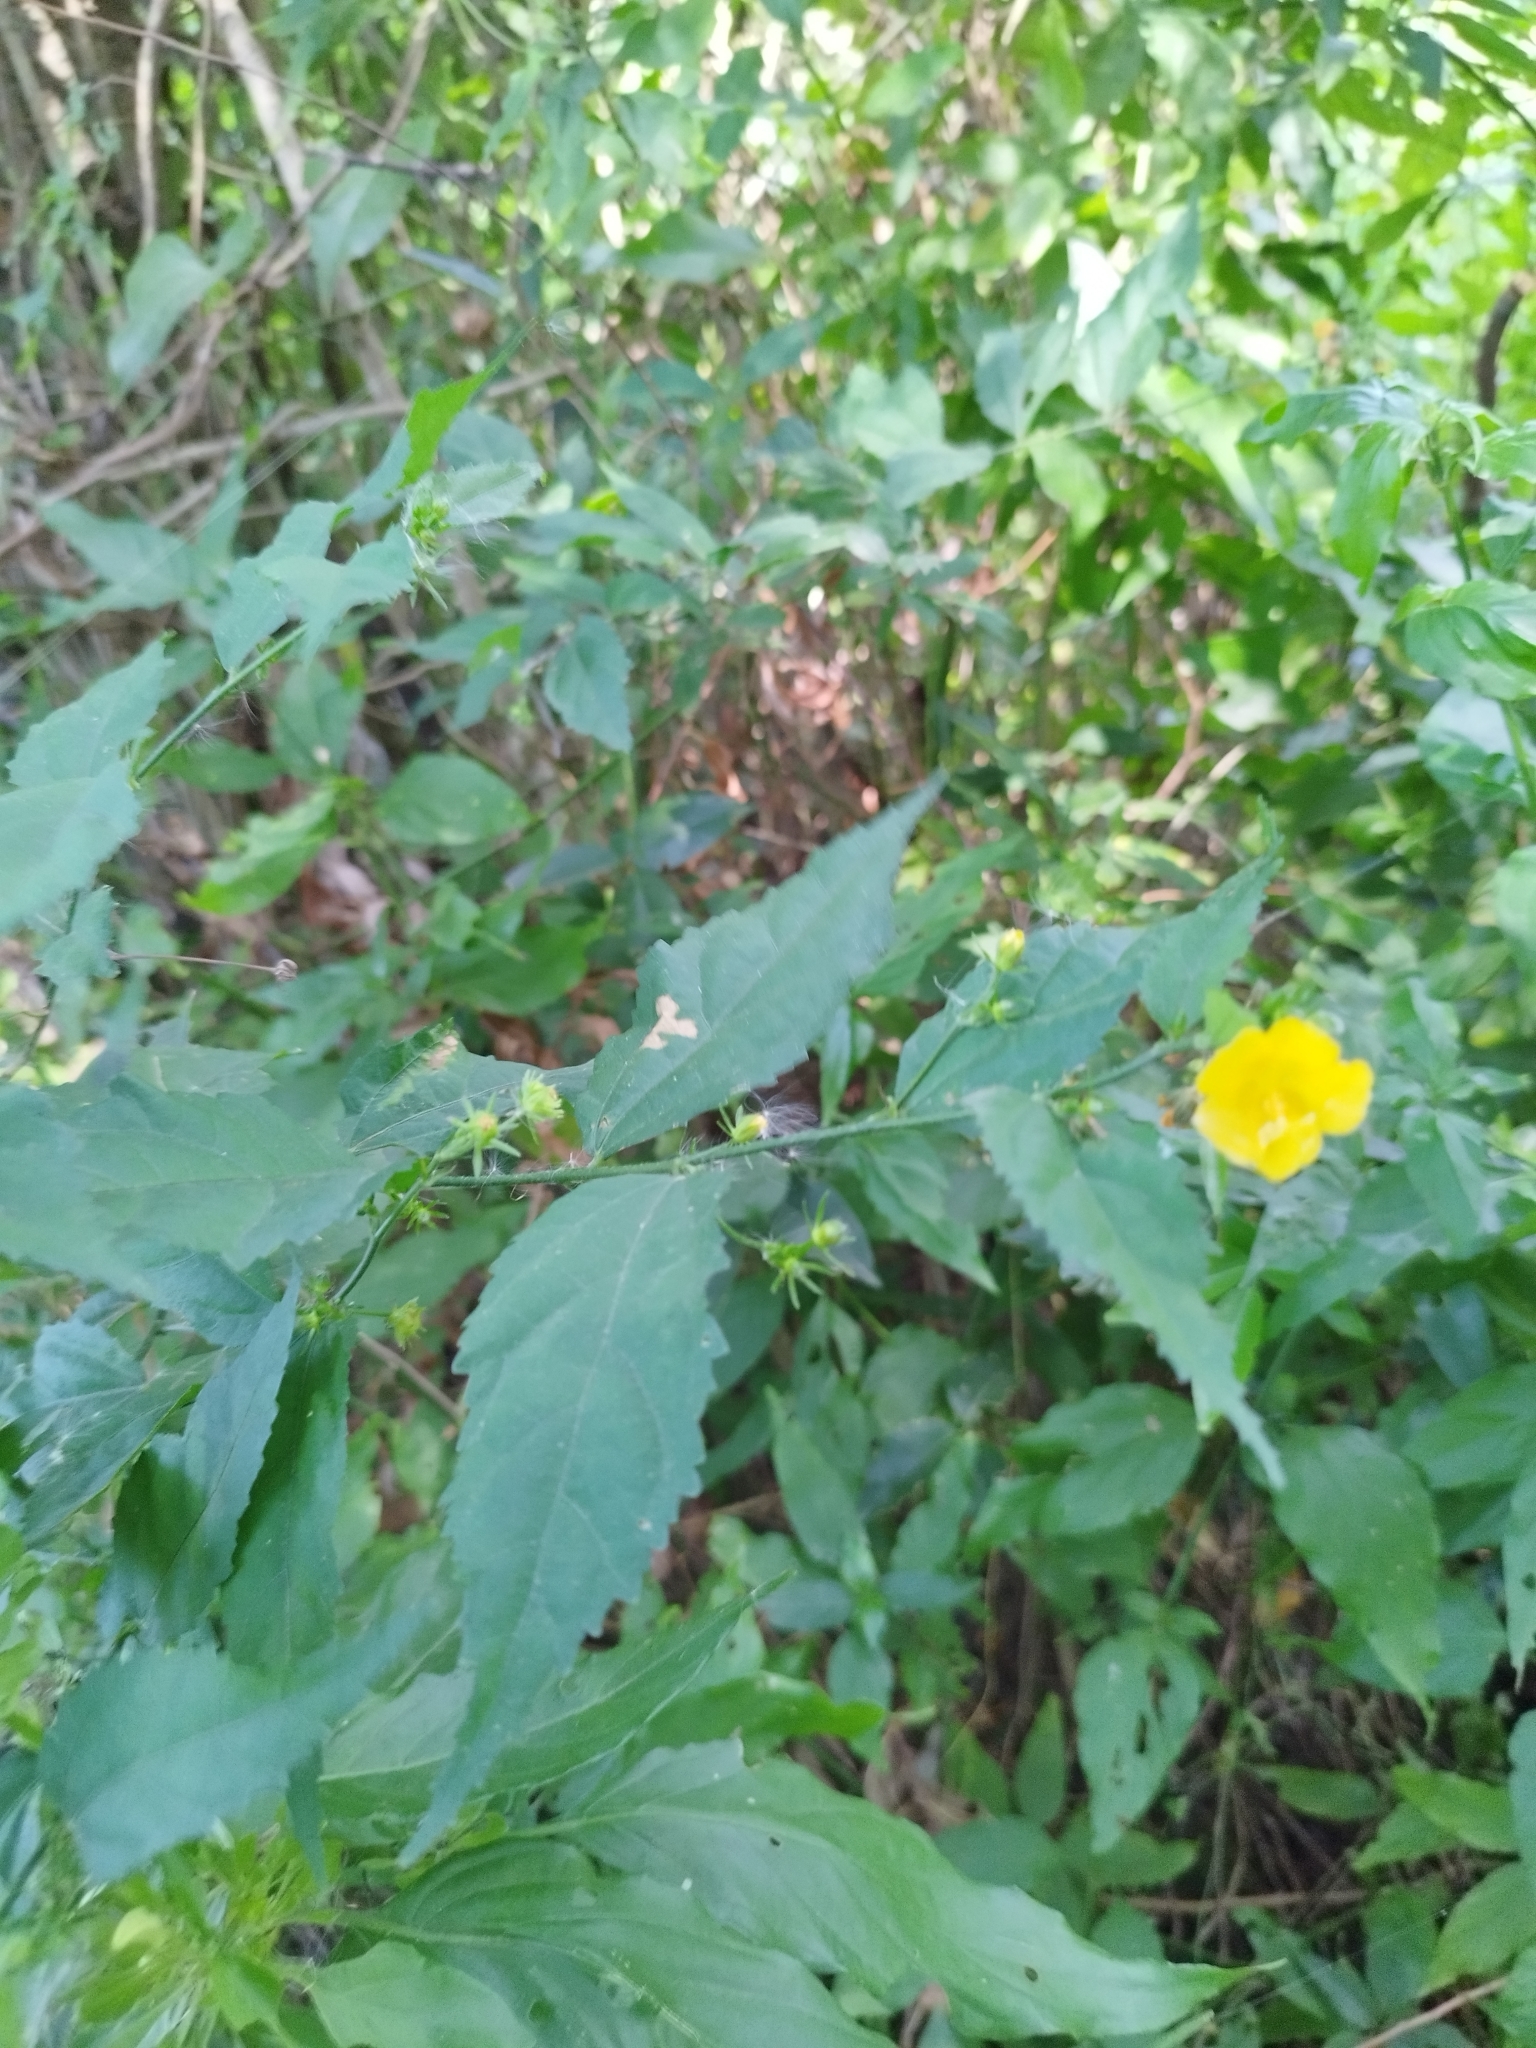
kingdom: Plantae
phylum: Tracheophyta
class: Magnoliopsida
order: Malvales
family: Malvaceae
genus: Pavonia
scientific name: Pavonia sepium
